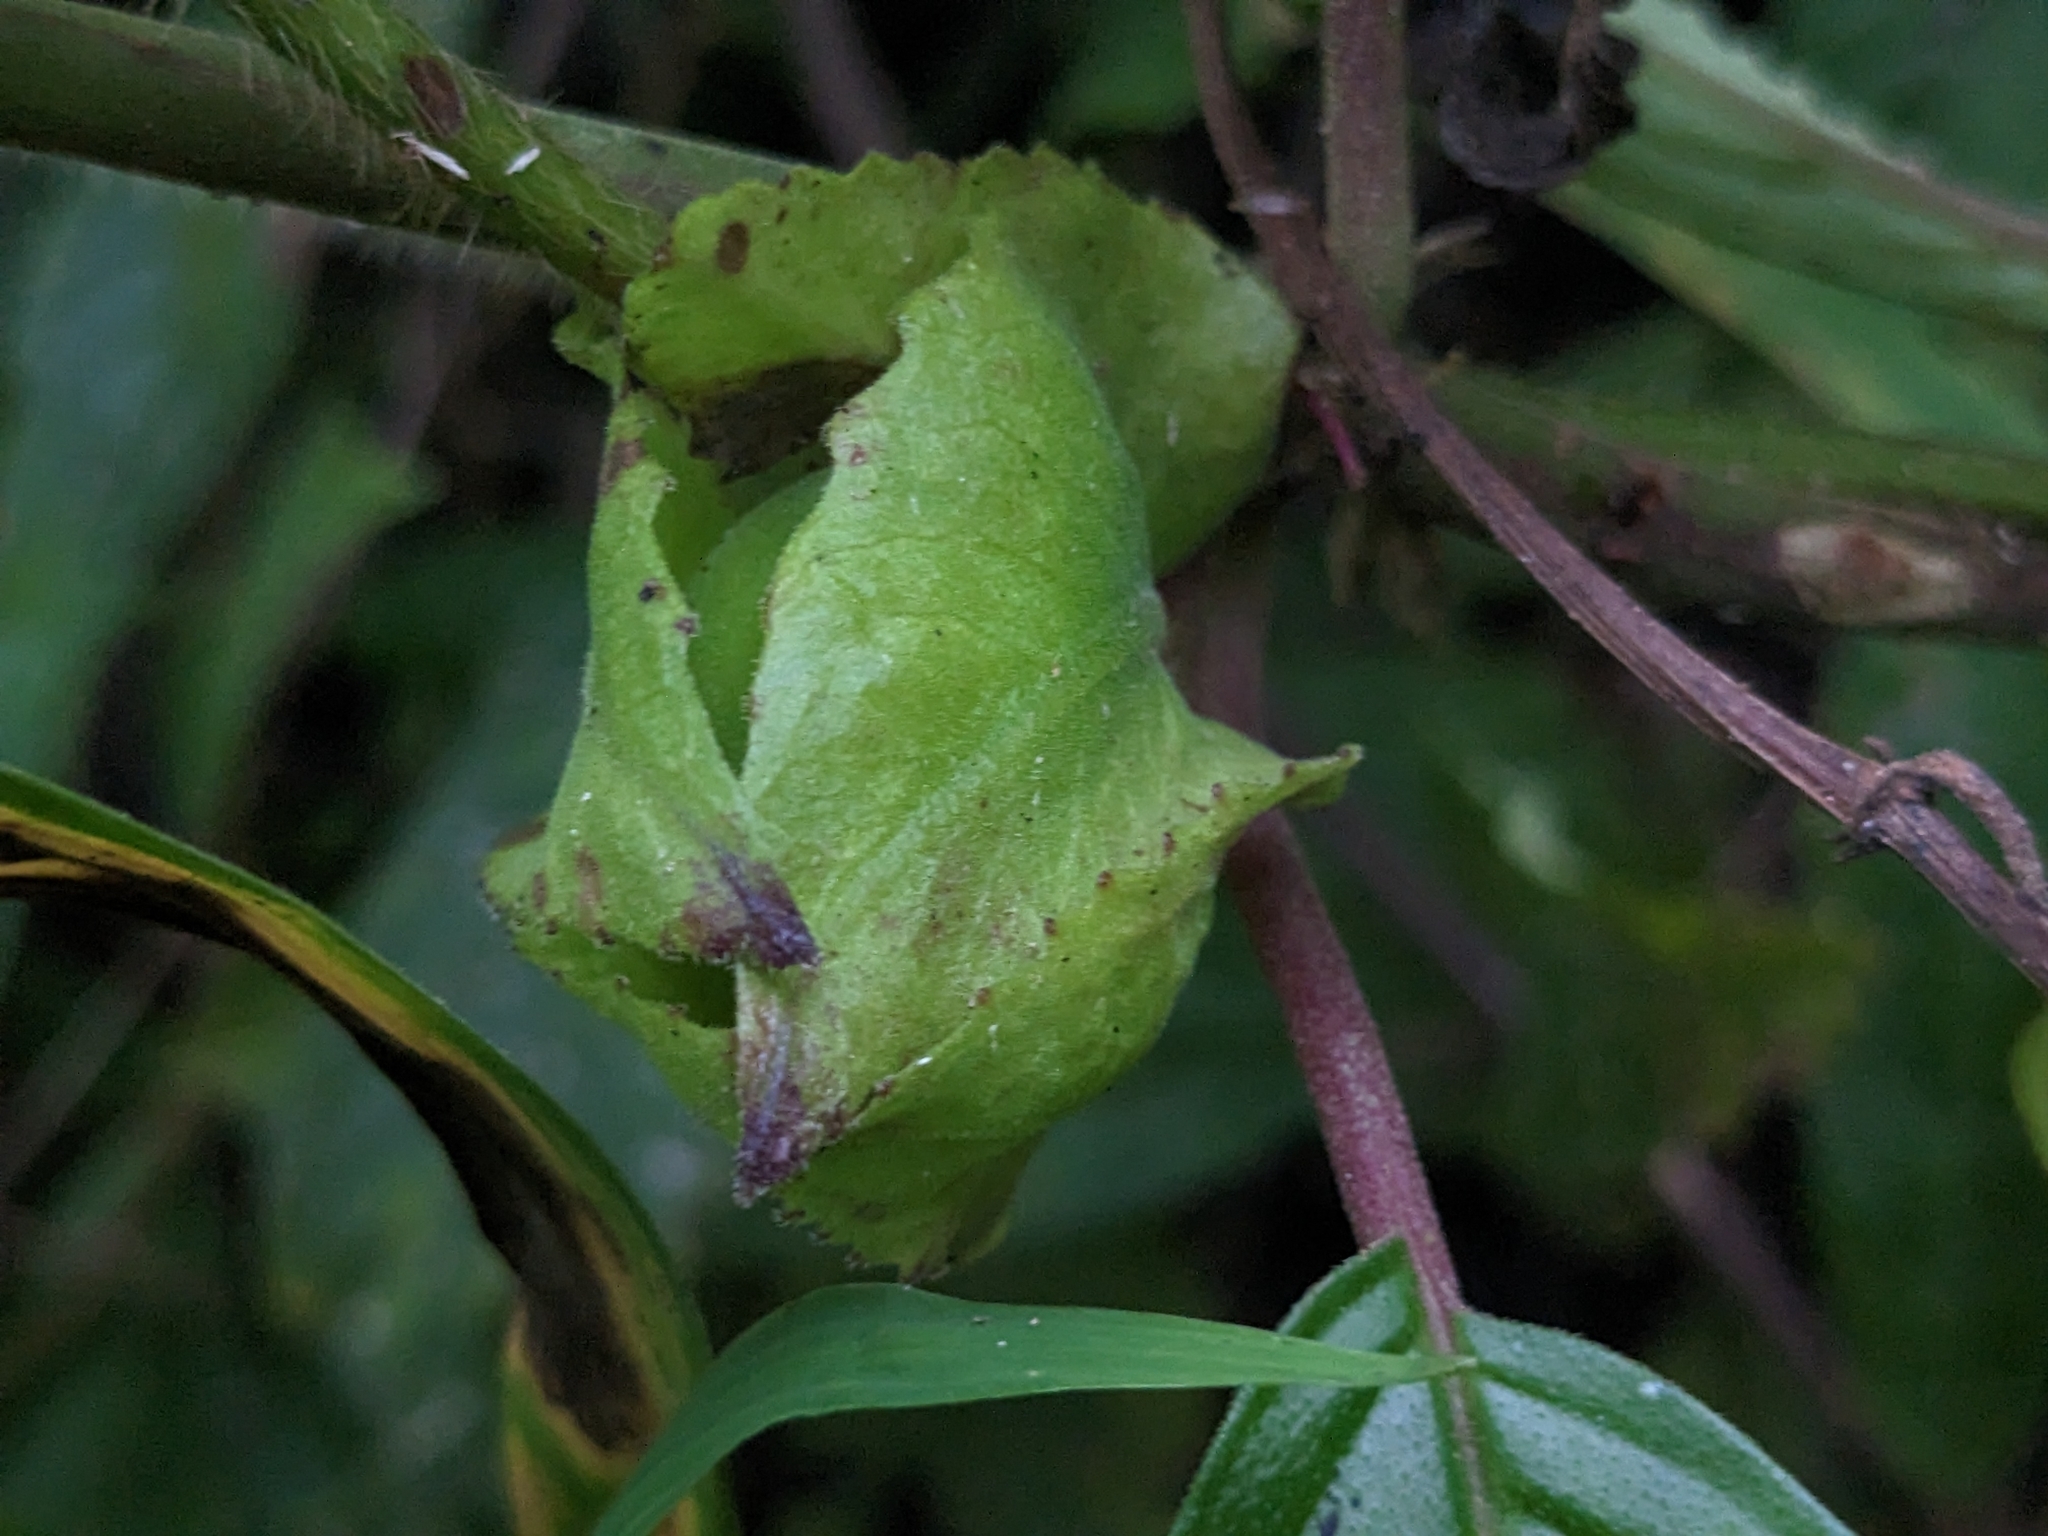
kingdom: Plantae
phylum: Tracheophyta
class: Magnoliopsida
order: Lamiales
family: Gesneriaceae
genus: Drymonia
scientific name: Drymonia serrulata
